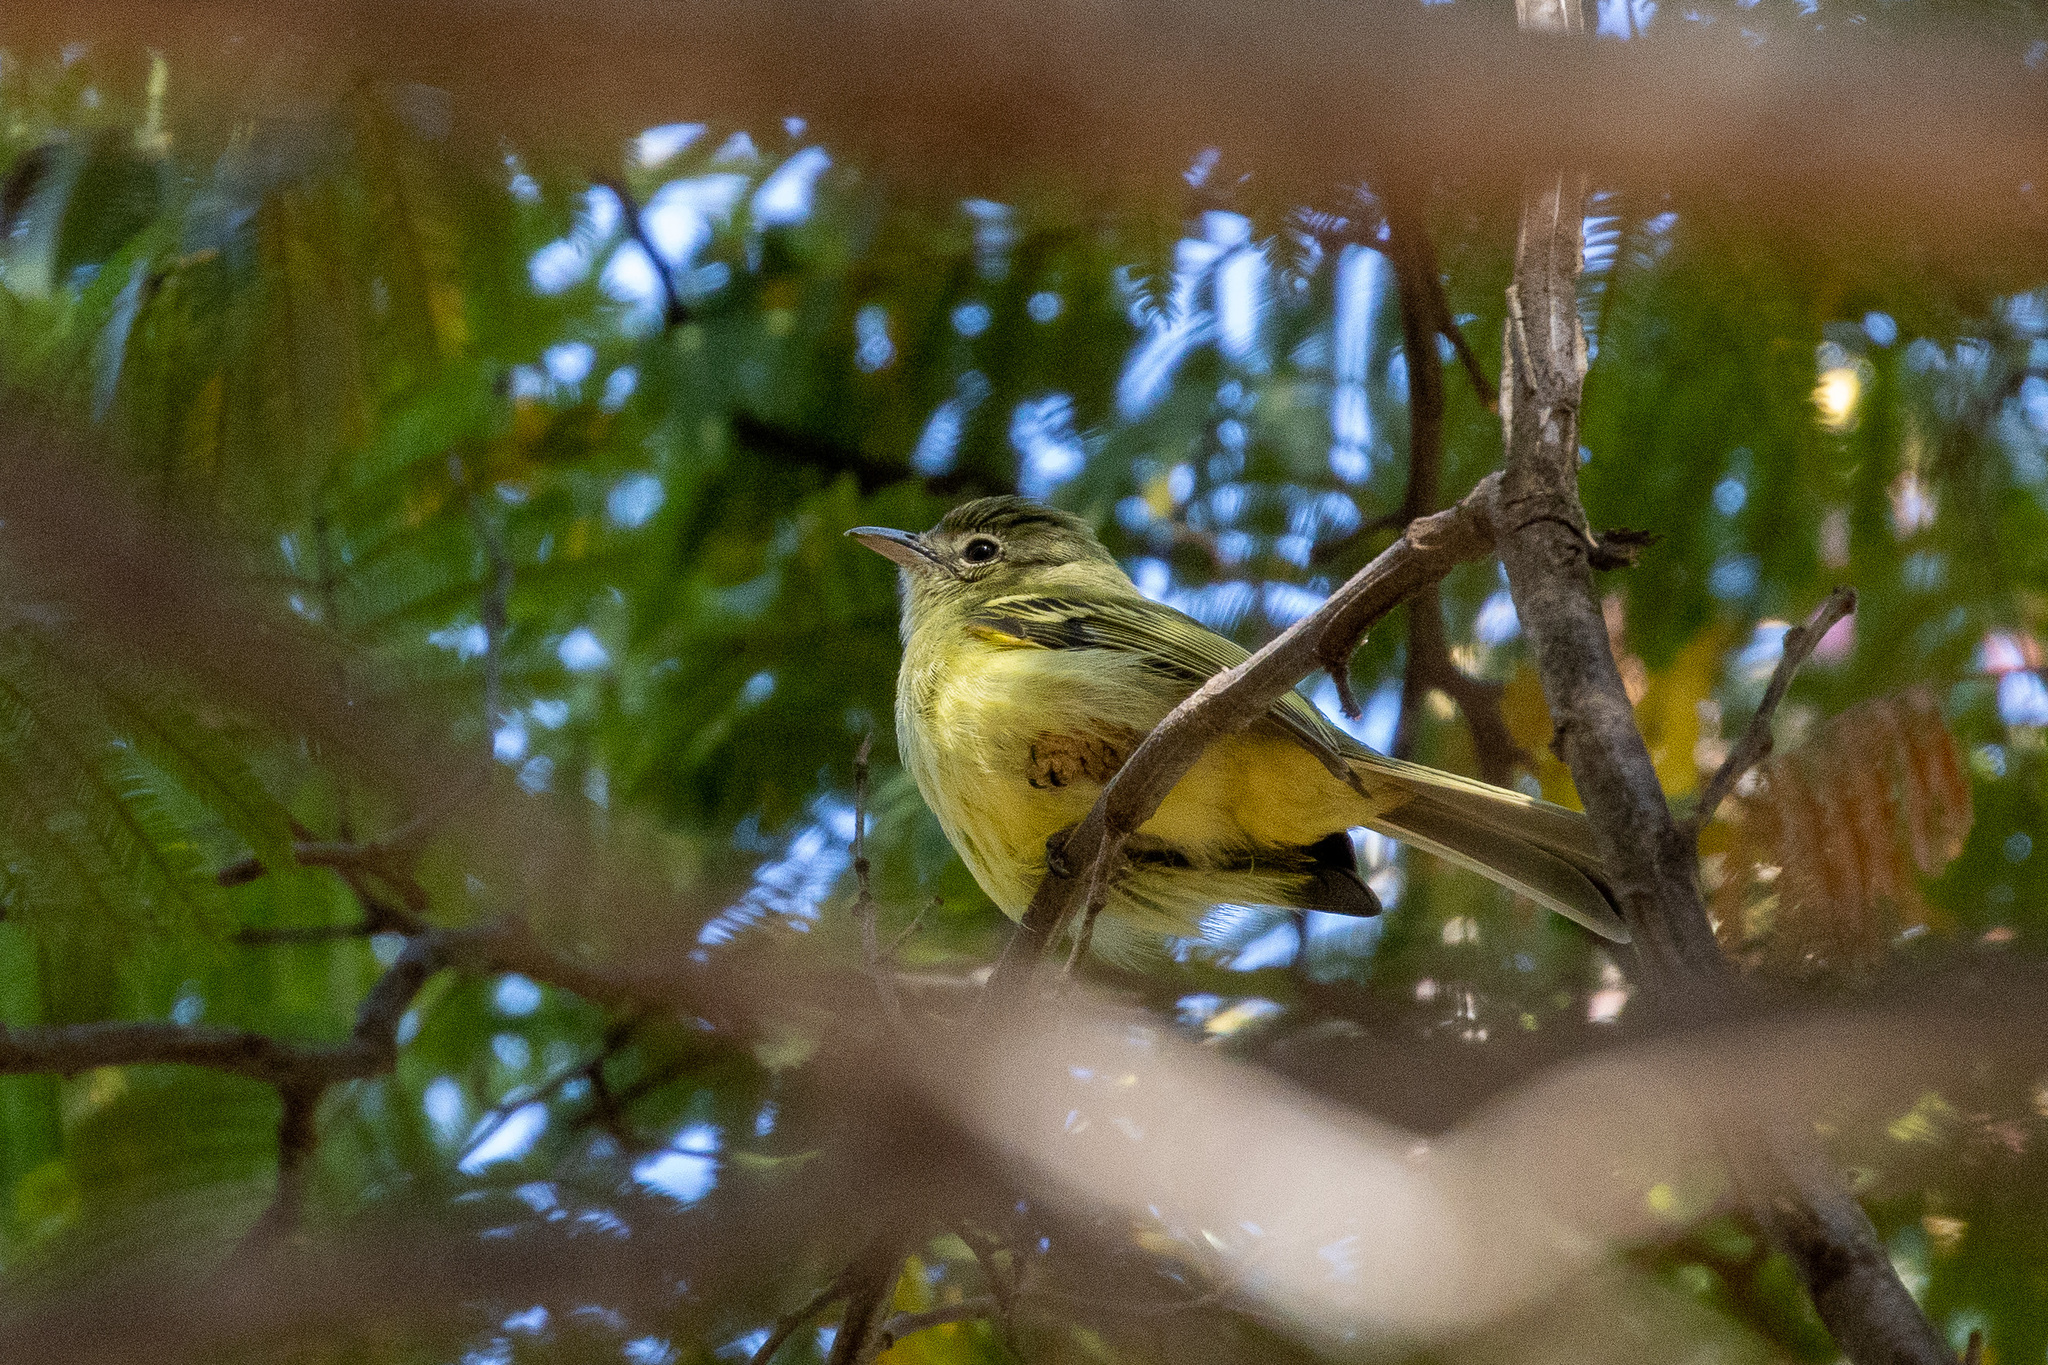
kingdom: Animalia
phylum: Chordata
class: Aves
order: Passeriformes
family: Tyrannidae
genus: Tolmomyias
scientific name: Tolmomyias sulphurescens
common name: Yellow-olive flycatcher
